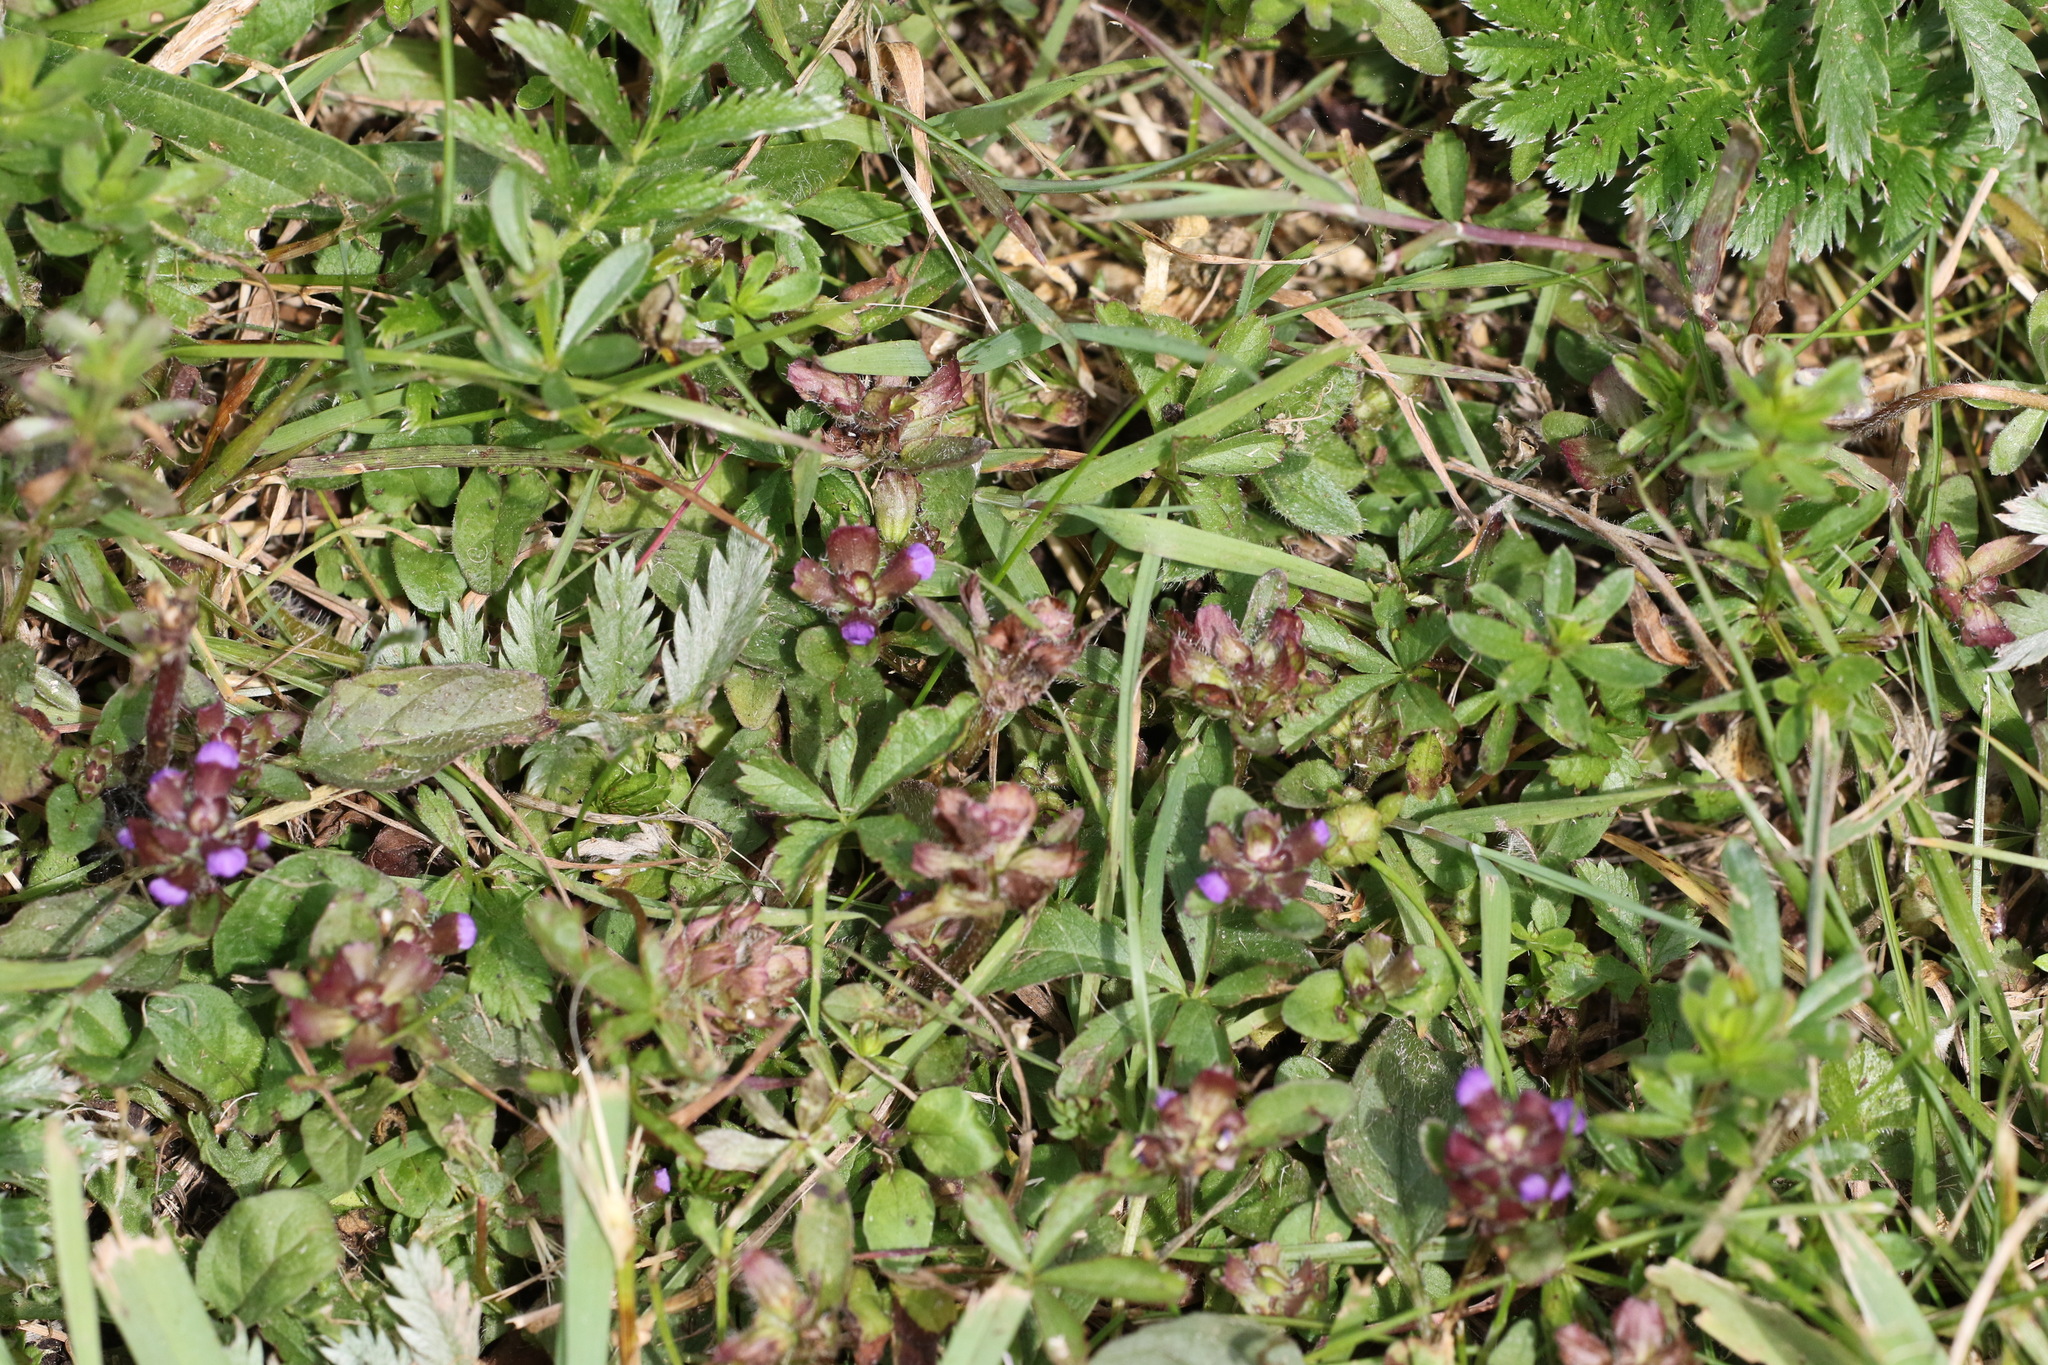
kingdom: Plantae
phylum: Tracheophyta
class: Magnoliopsida
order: Lamiales
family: Lamiaceae
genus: Prunella
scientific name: Prunella vulgaris
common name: Heal-all
